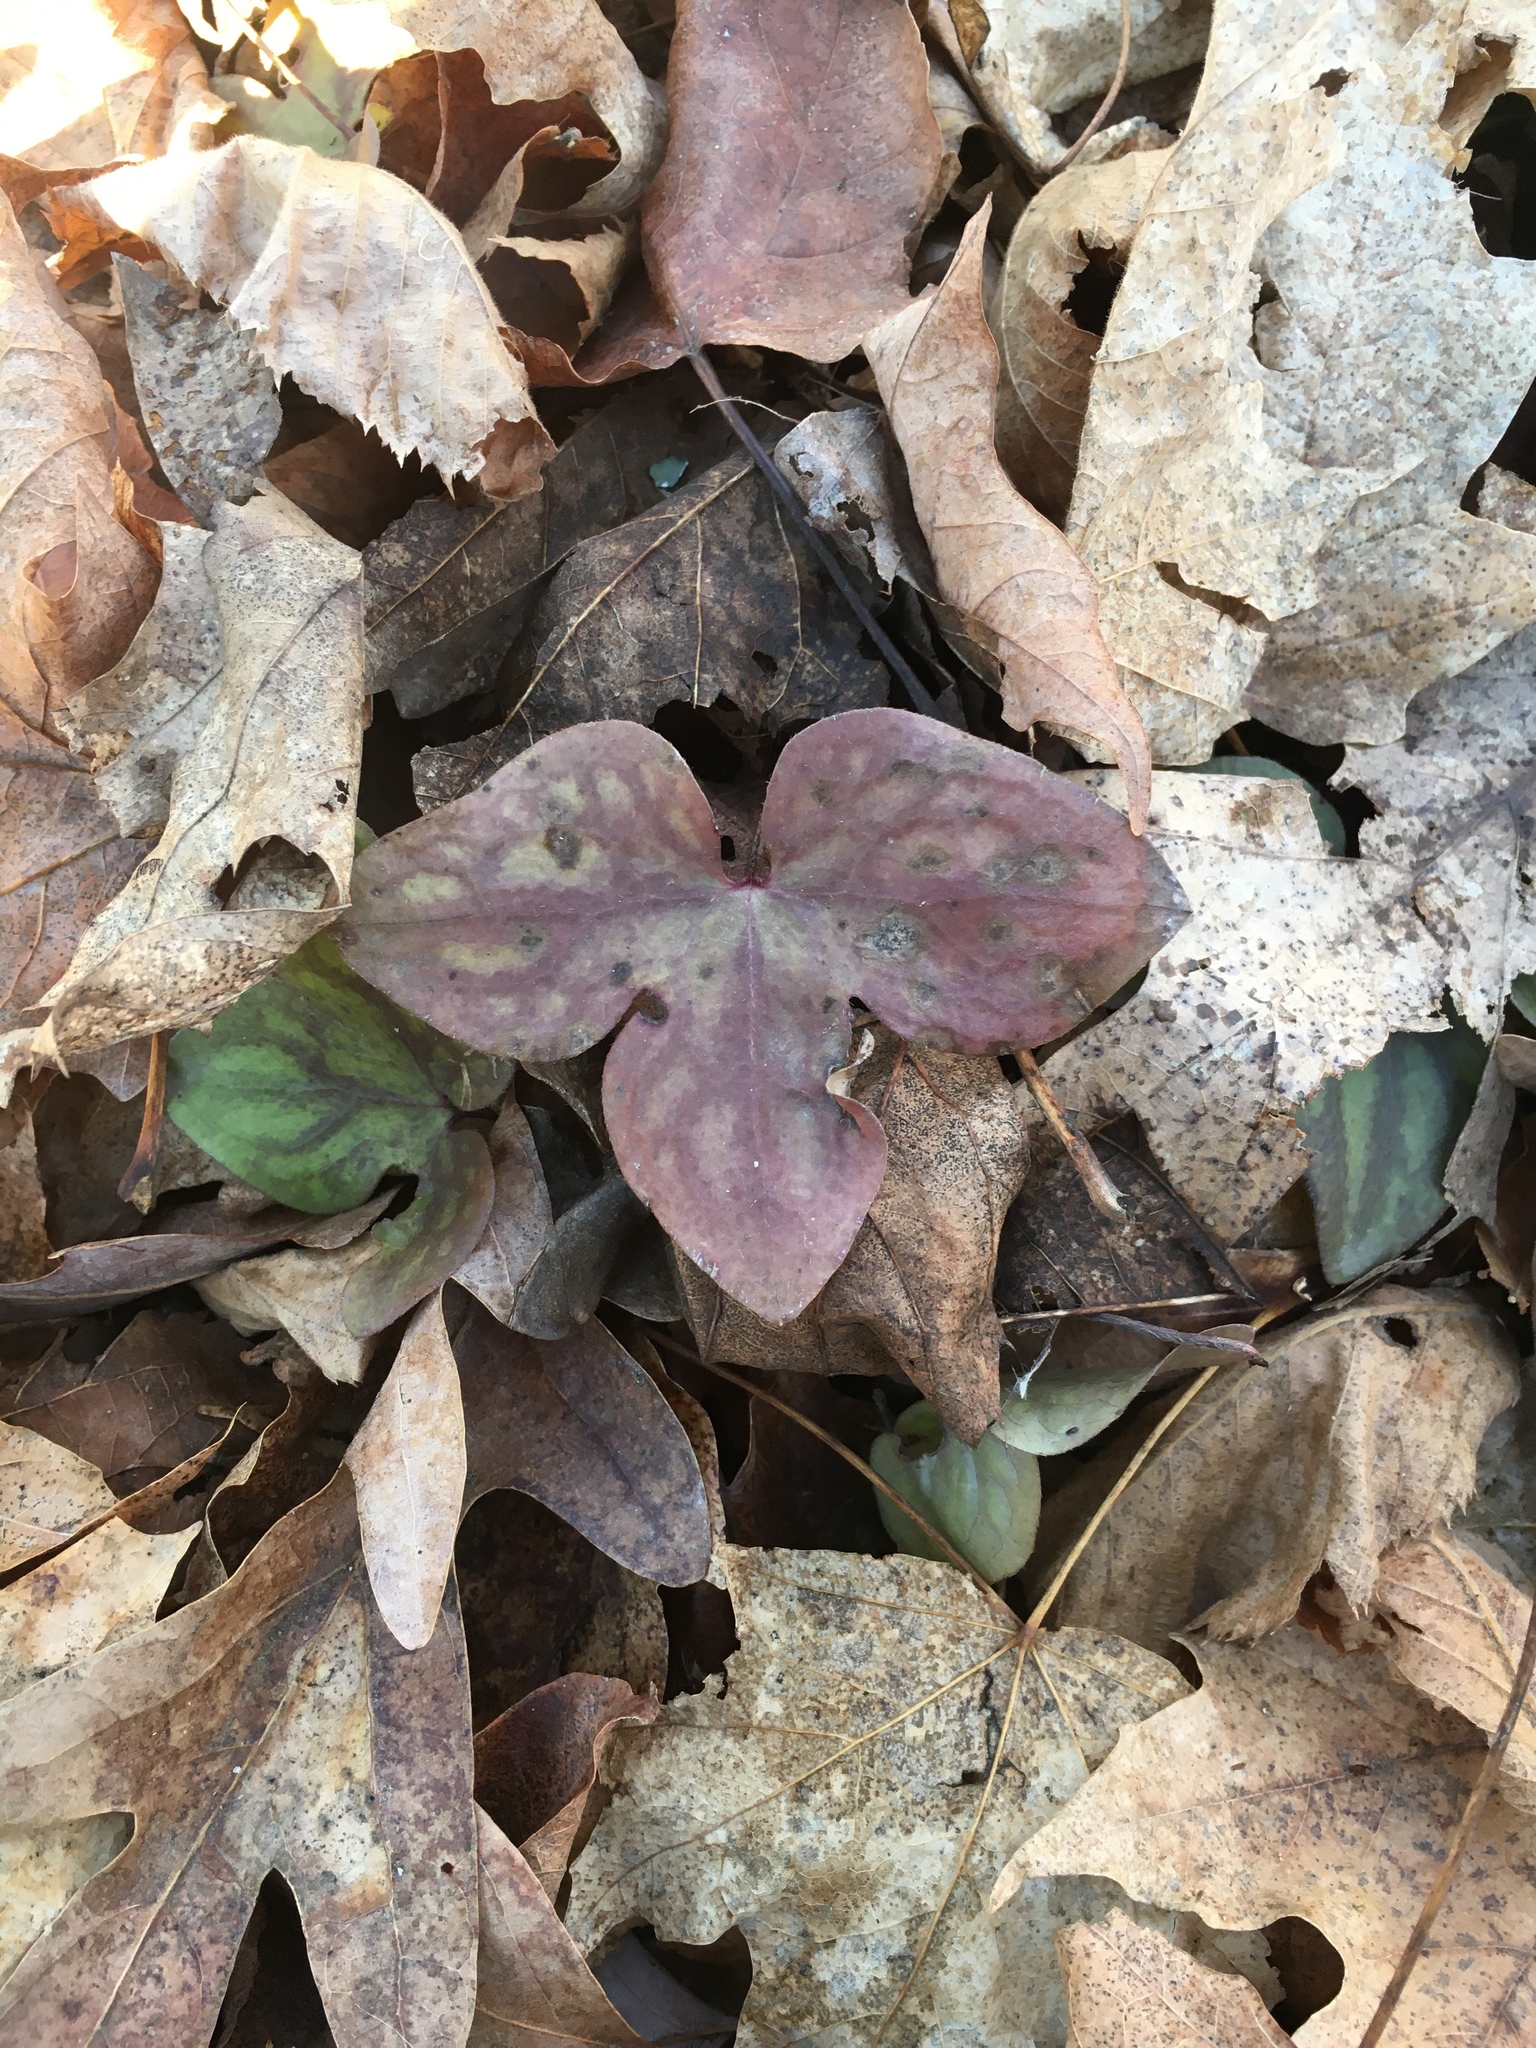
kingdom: Plantae
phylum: Tracheophyta
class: Magnoliopsida
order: Ranunculales
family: Ranunculaceae
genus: Hepatica
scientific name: Hepatica acutiloba
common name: Sharp-lobed hepatica
